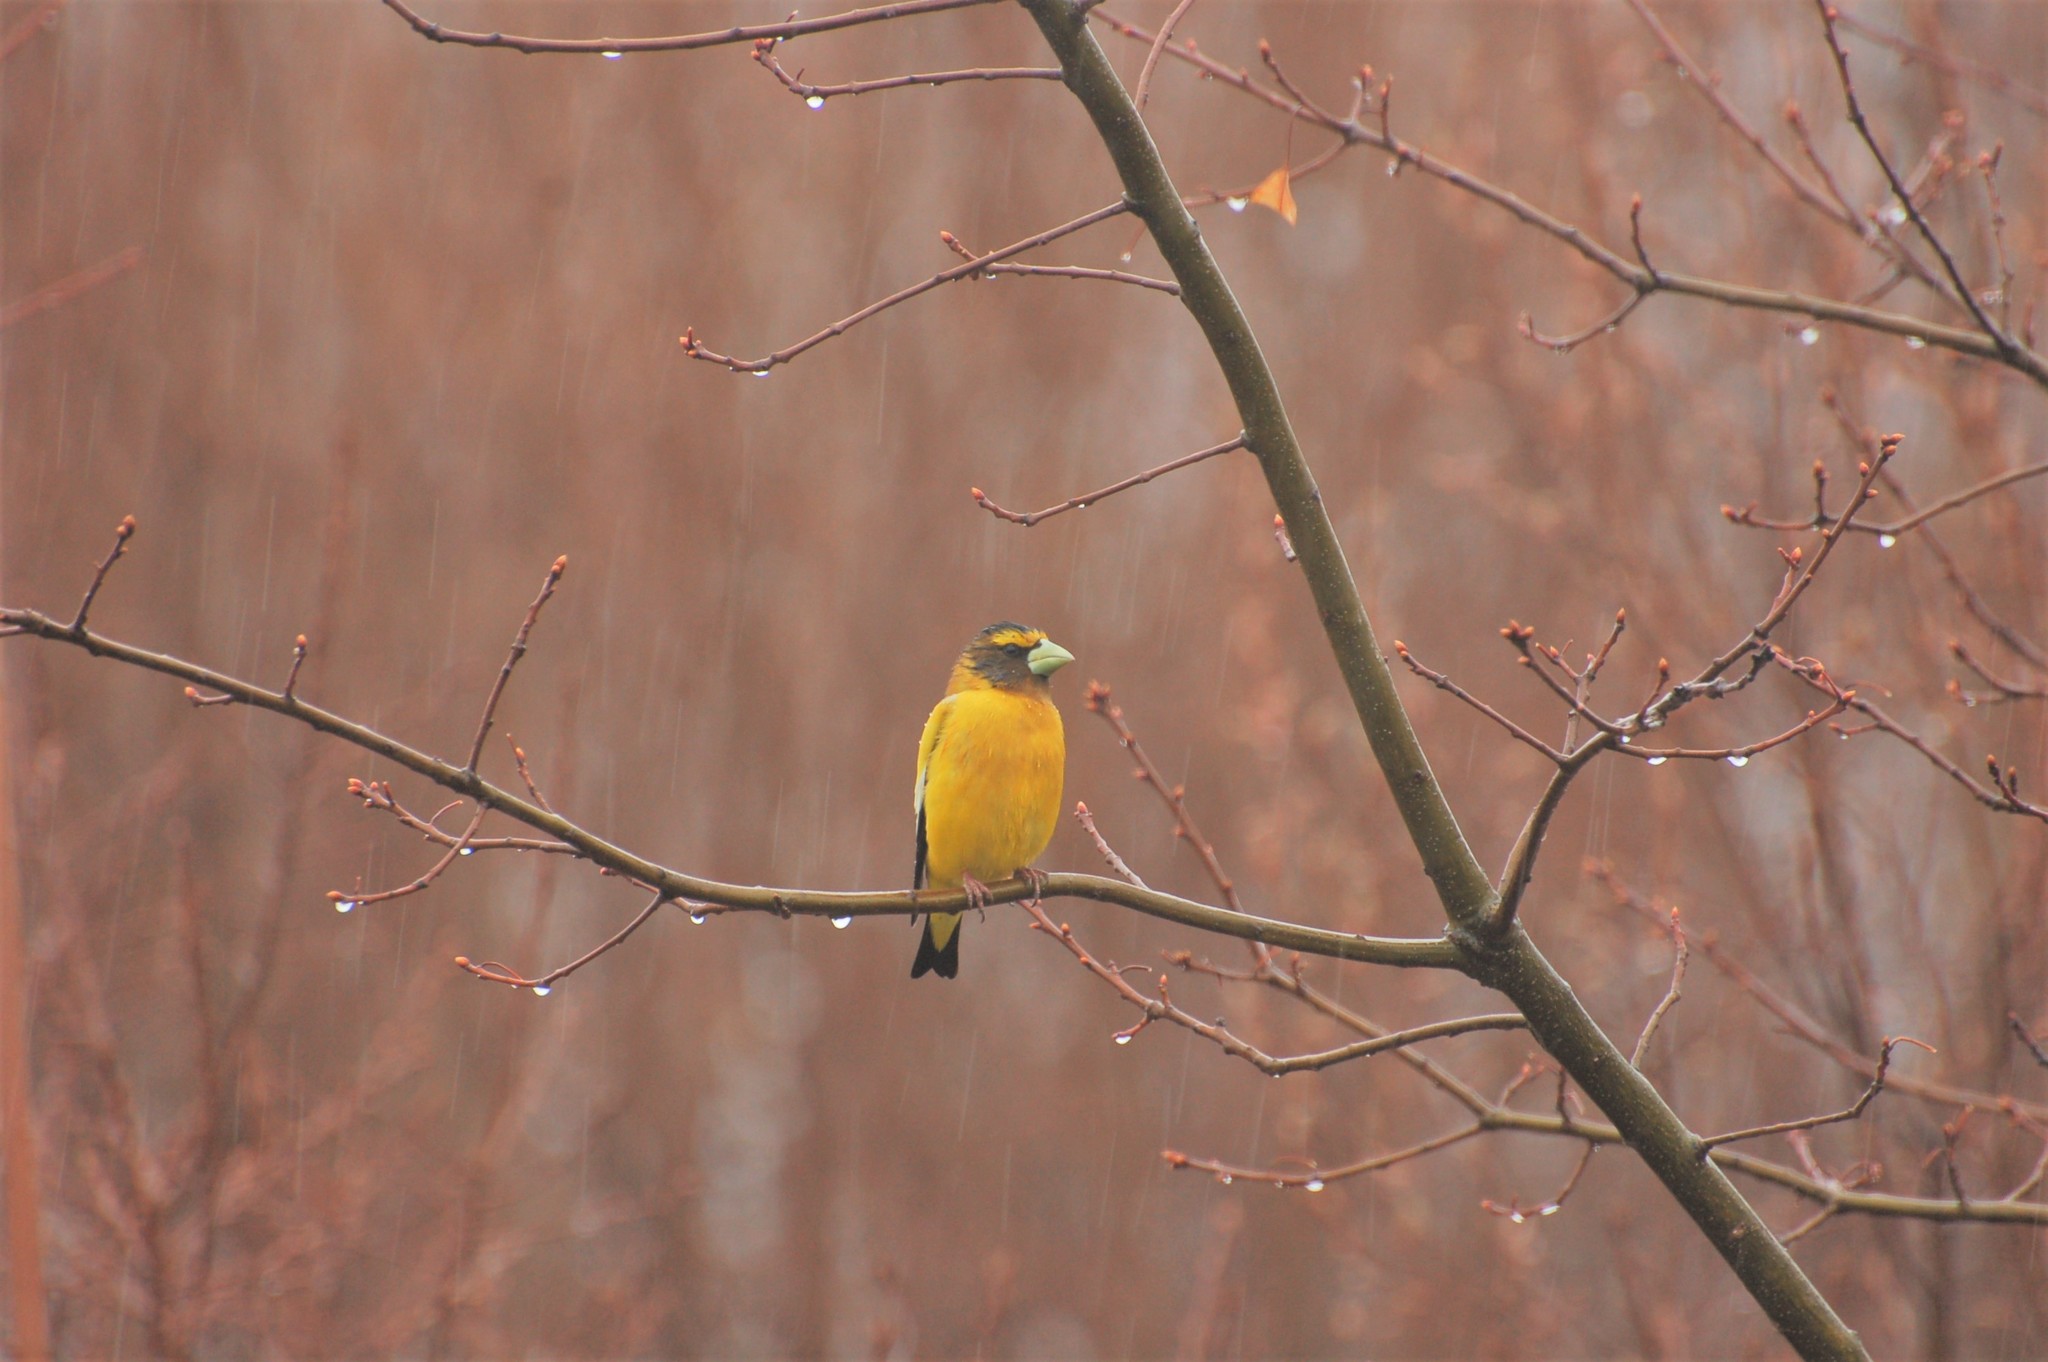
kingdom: Animalia
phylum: Chordata
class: Aves
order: Passeriformes
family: Fringillidae
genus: Hesperiphona
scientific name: Hesperiphona vespertina
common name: Evening grosbeak
